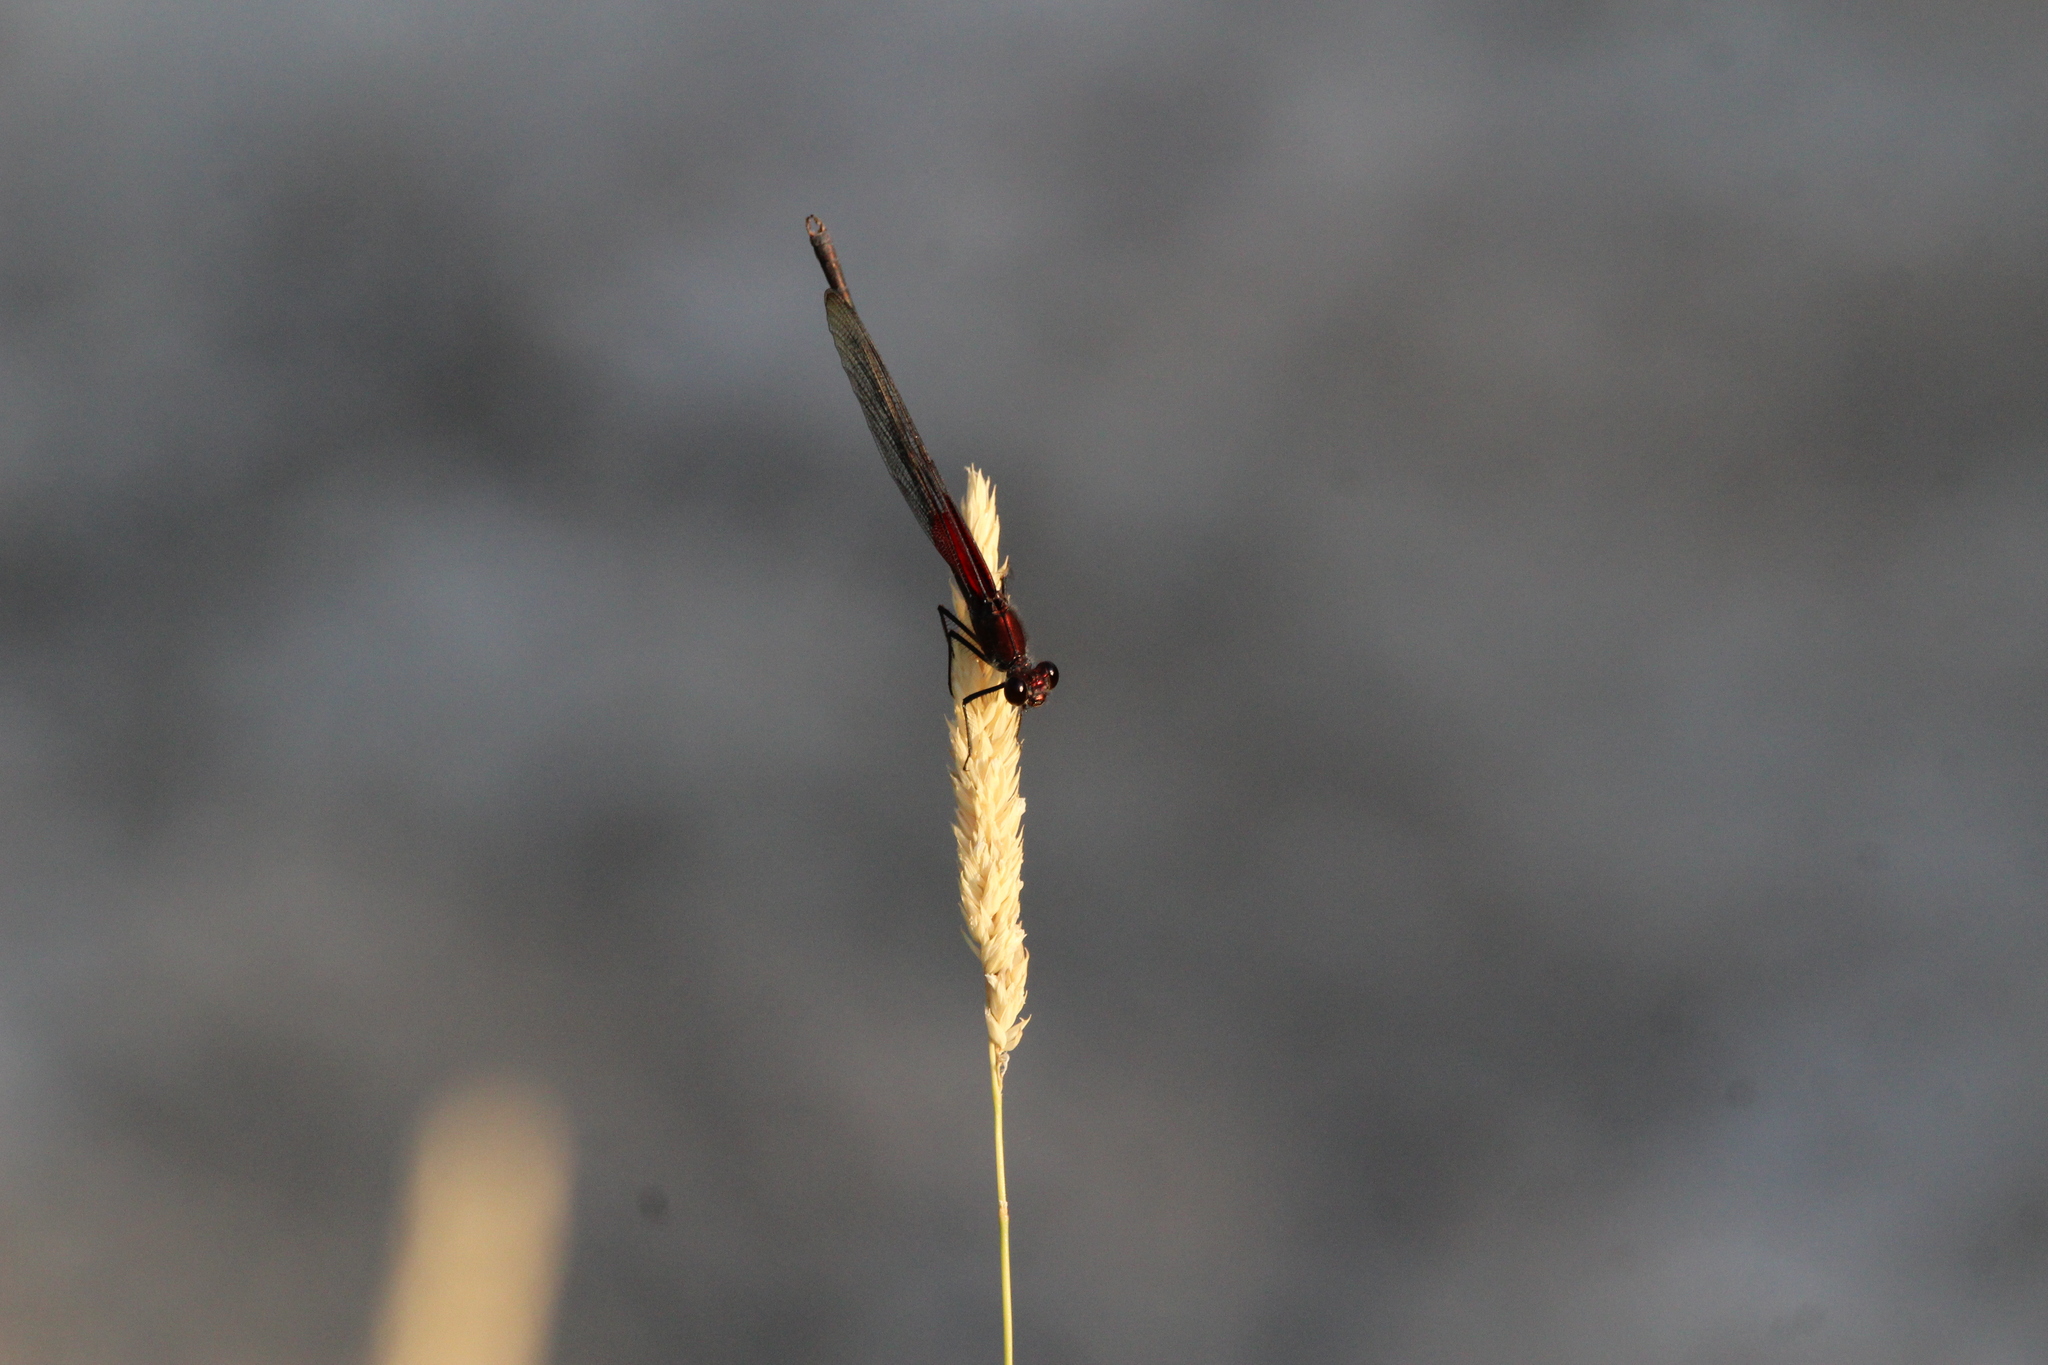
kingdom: Animalia
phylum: Arthropoda
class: Insecta
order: Odonata
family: Calopterygidae
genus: Hetaerina
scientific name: Hetaerina americana
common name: American rubyspot
